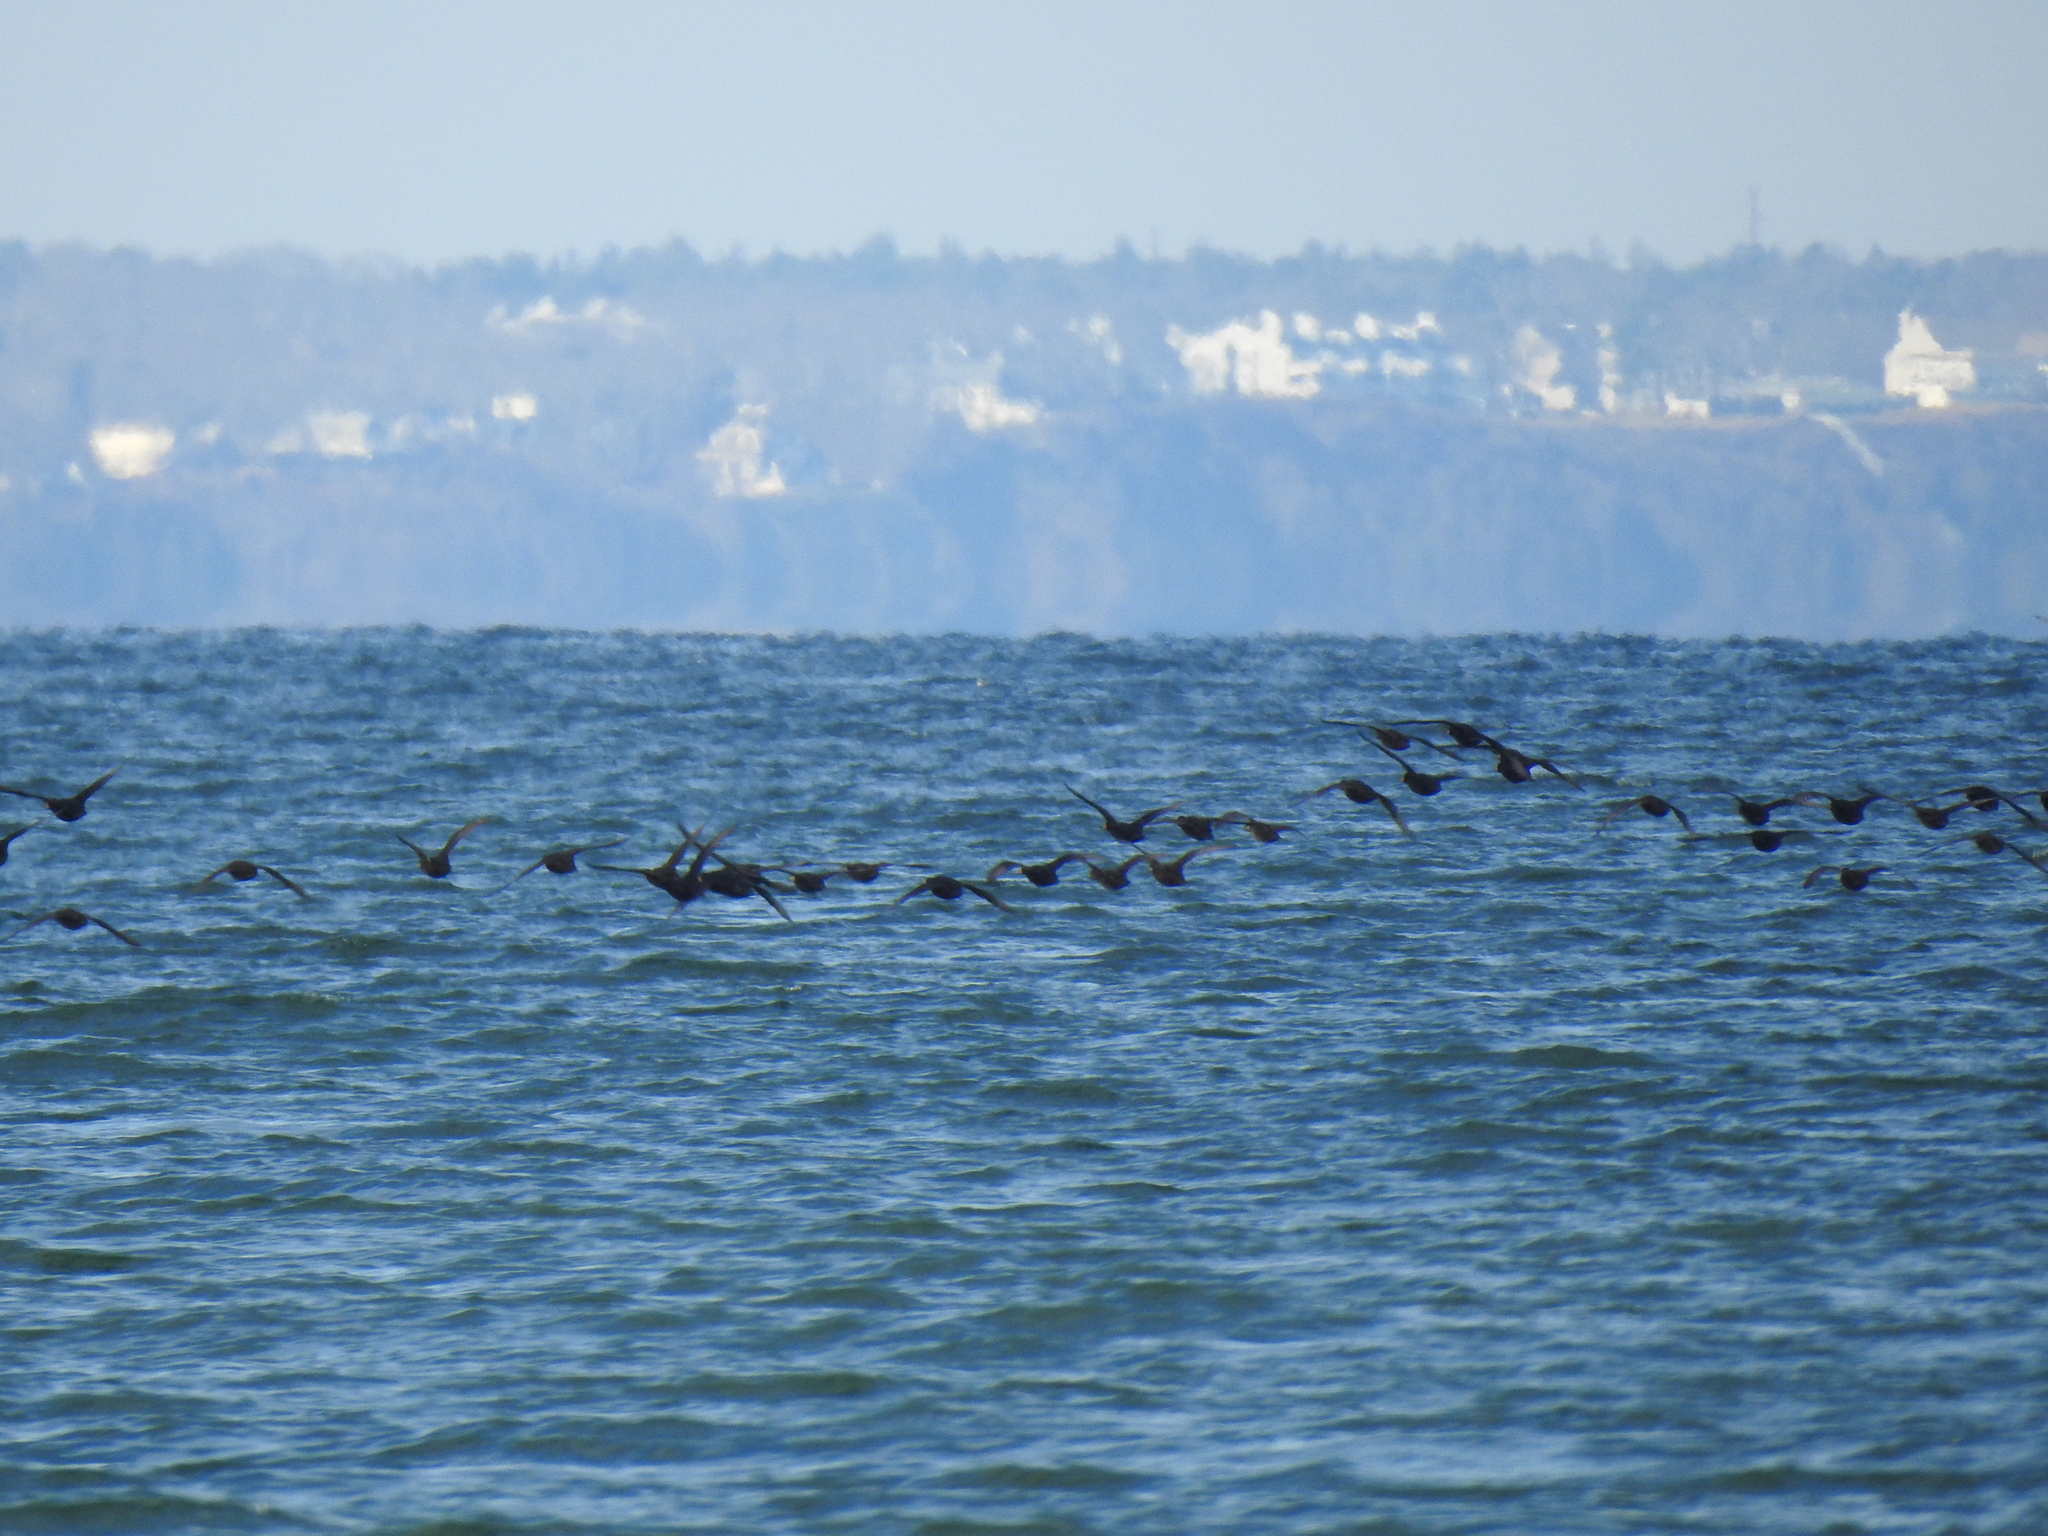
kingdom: Animalia
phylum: Chordata
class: Aves
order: Anseriformes
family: Anatidae
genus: Melanitta
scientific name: Melanitta americana
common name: Black scoter
